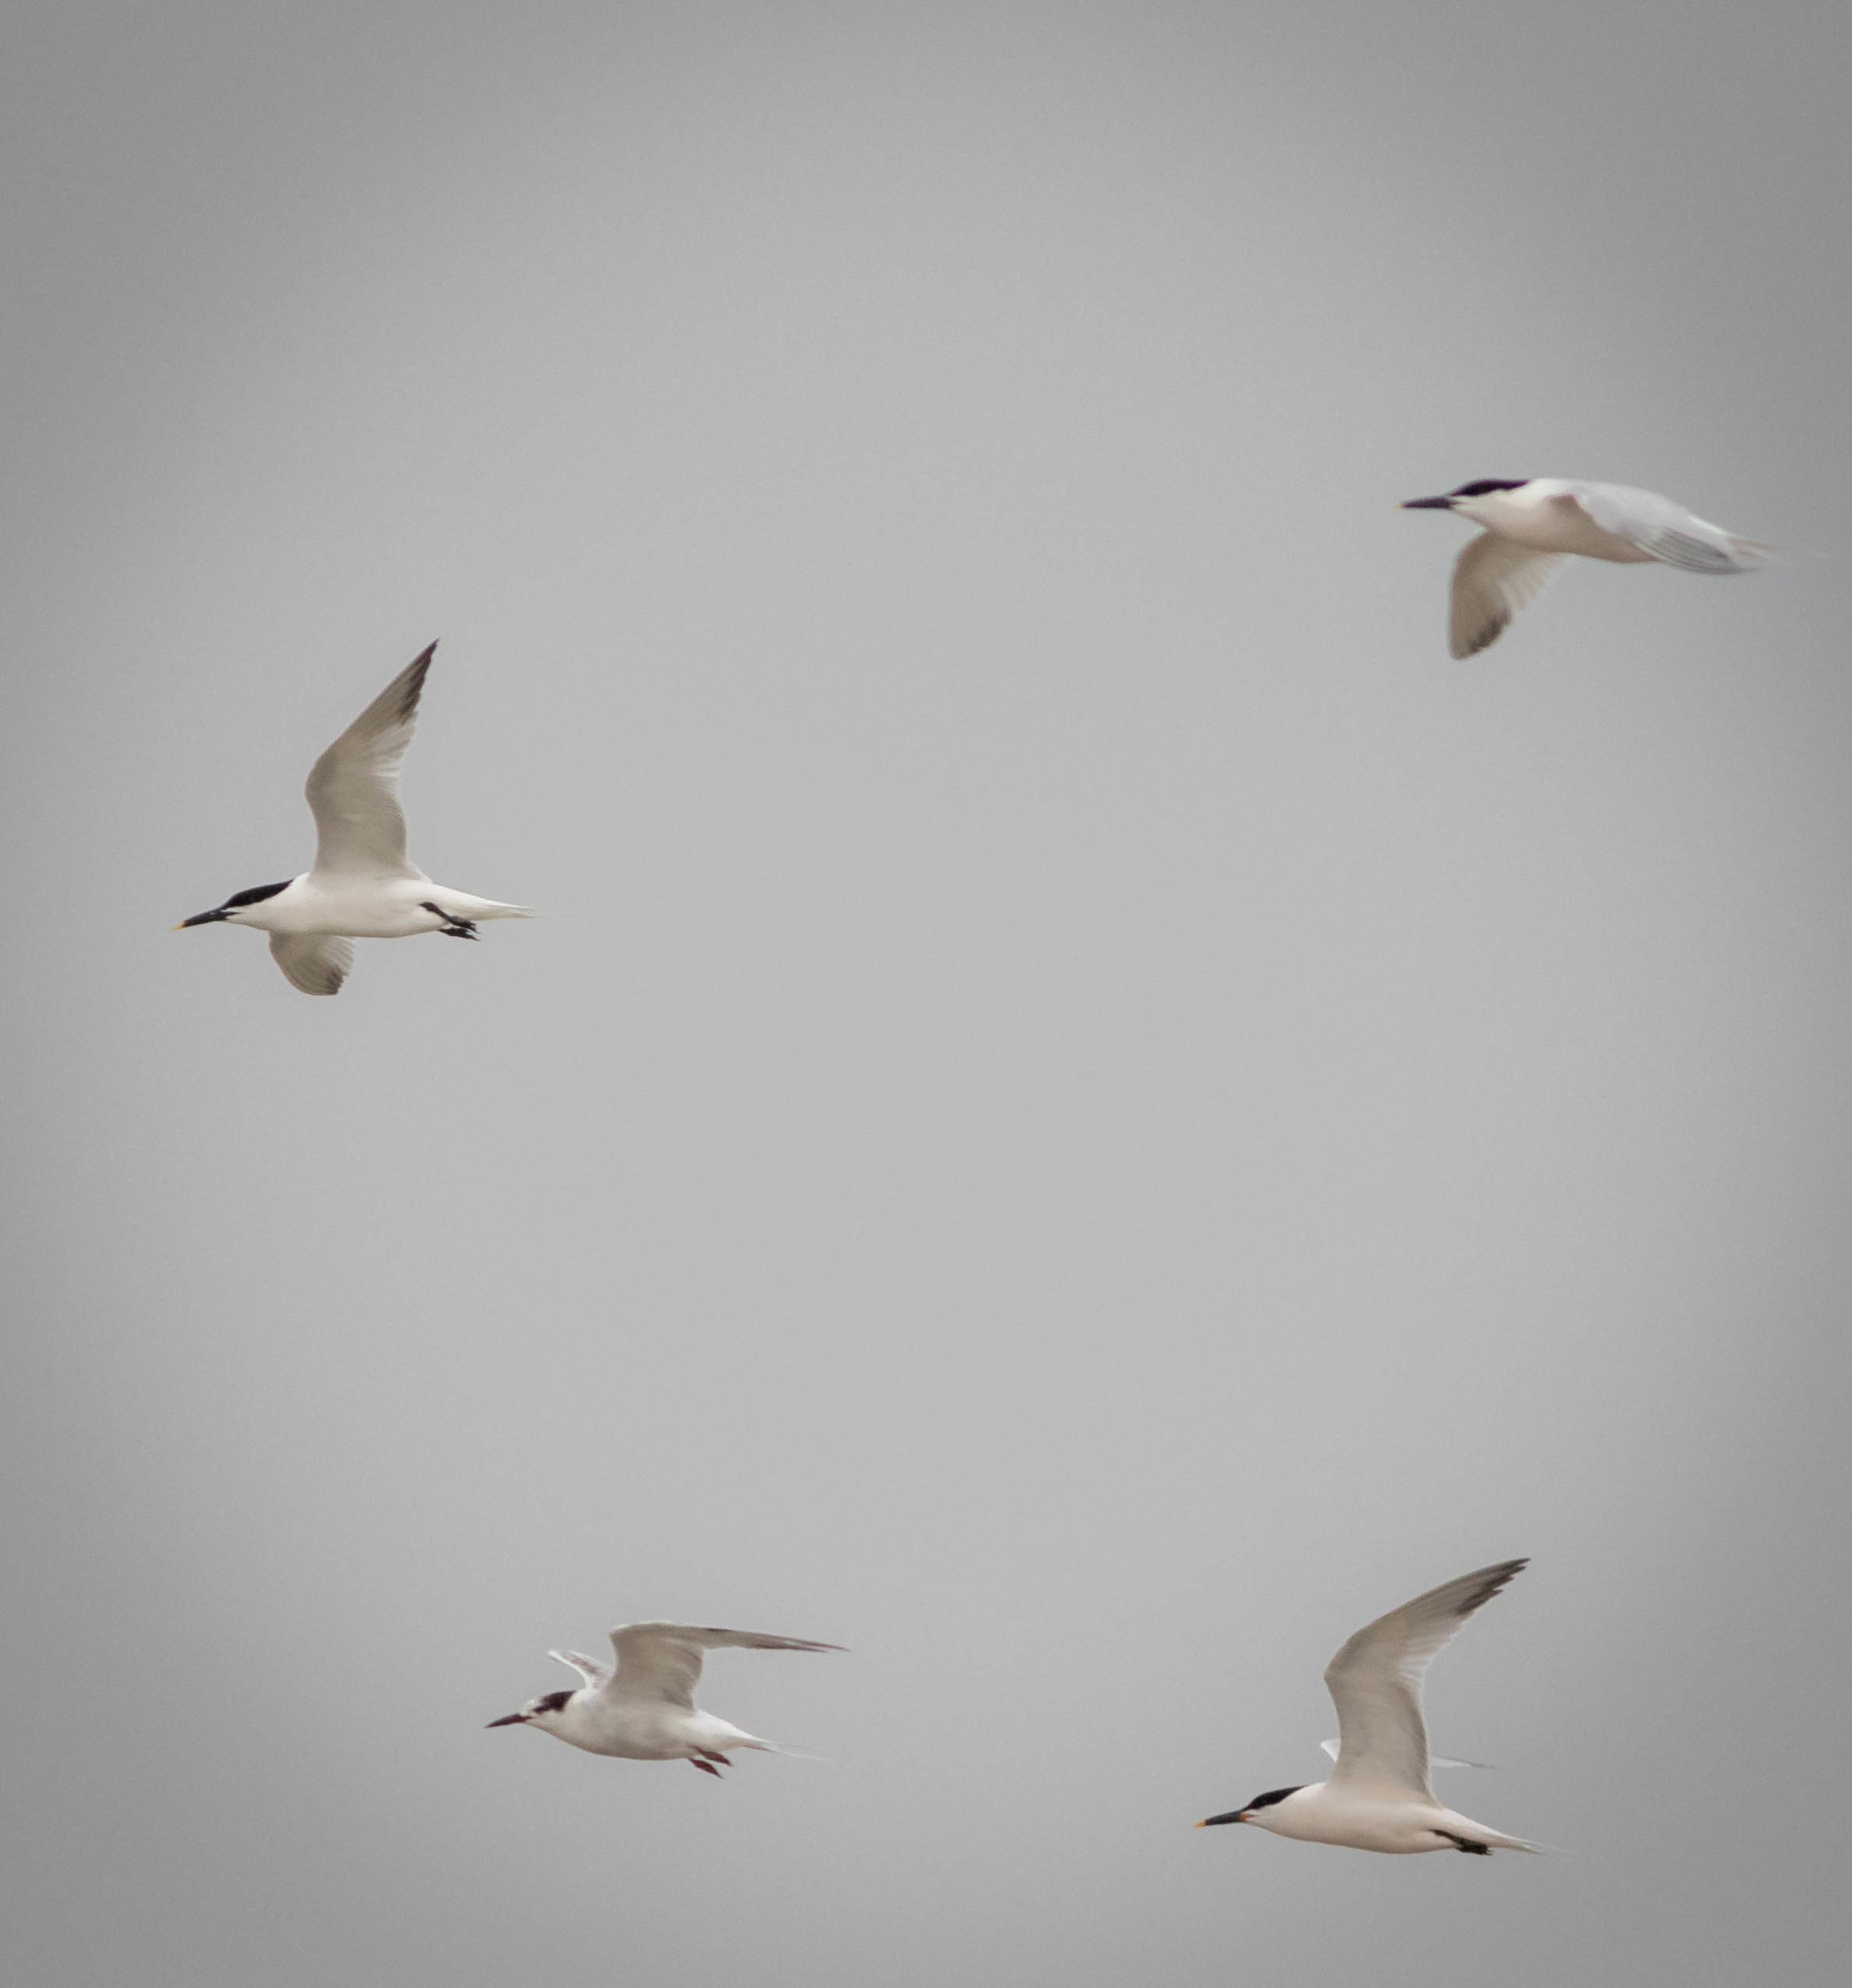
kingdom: Animalia
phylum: Chordata
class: Aves
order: Charadriiformes
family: Laridae
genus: Thalasseus
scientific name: Thalasseus sandvicensis
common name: Sandwich tern
